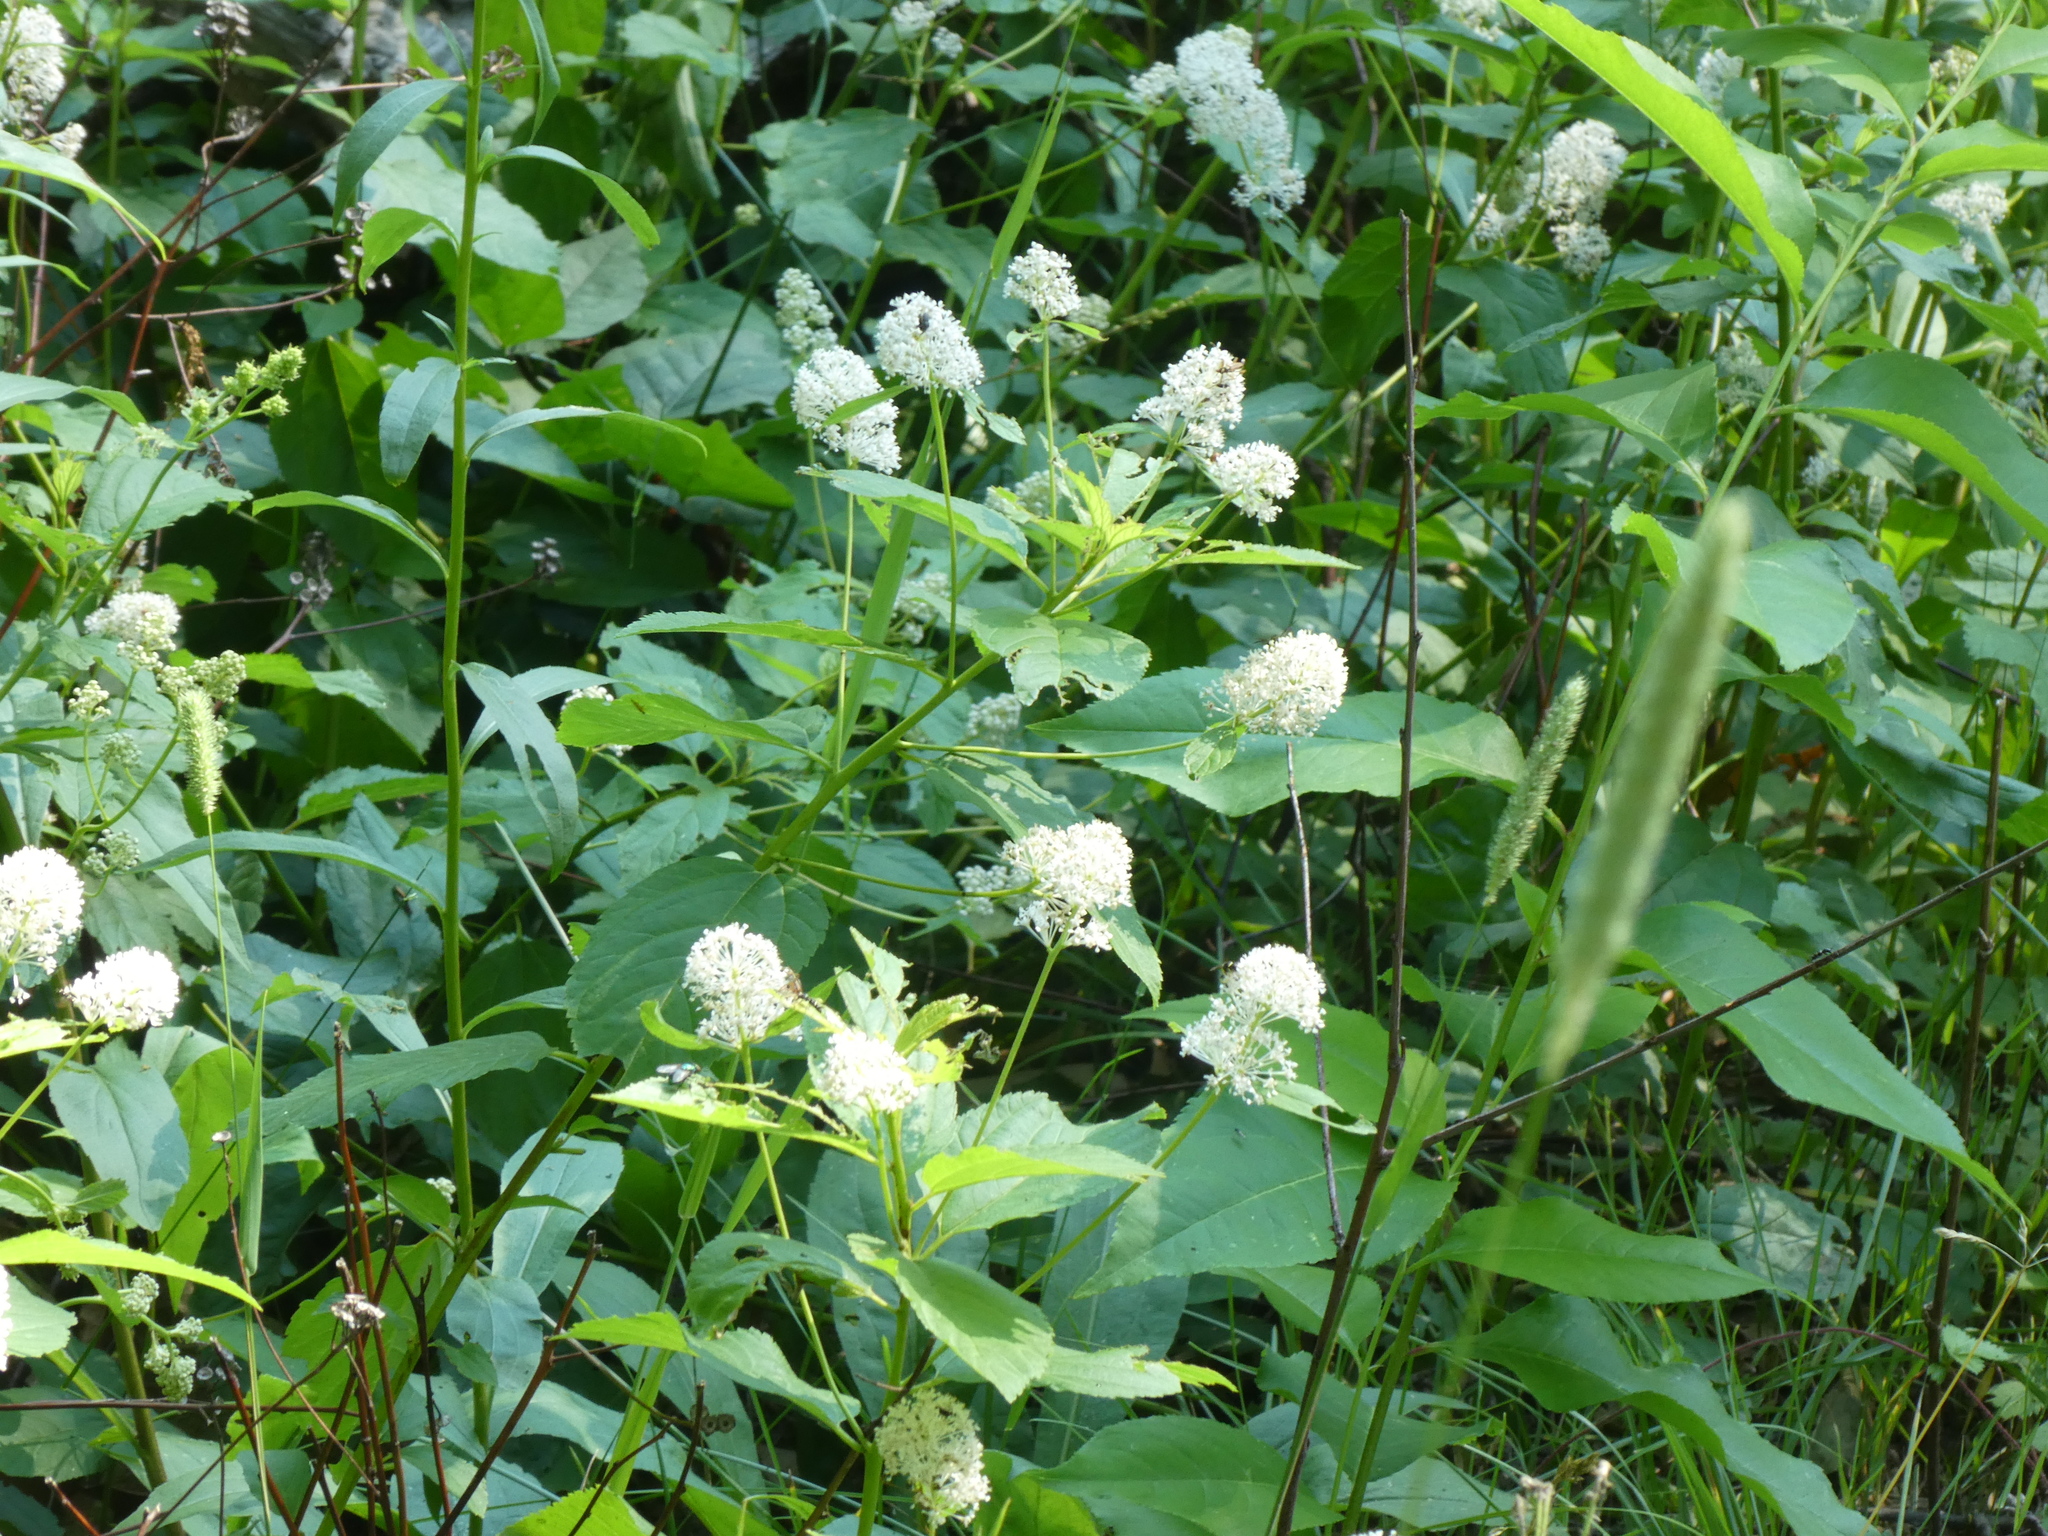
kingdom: Plantae
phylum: Tracheophyta
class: Magnoliopsida
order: Rosales
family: Rhamnaceae
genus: Ceanothus
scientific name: Ceanothus americanus
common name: Redroot
